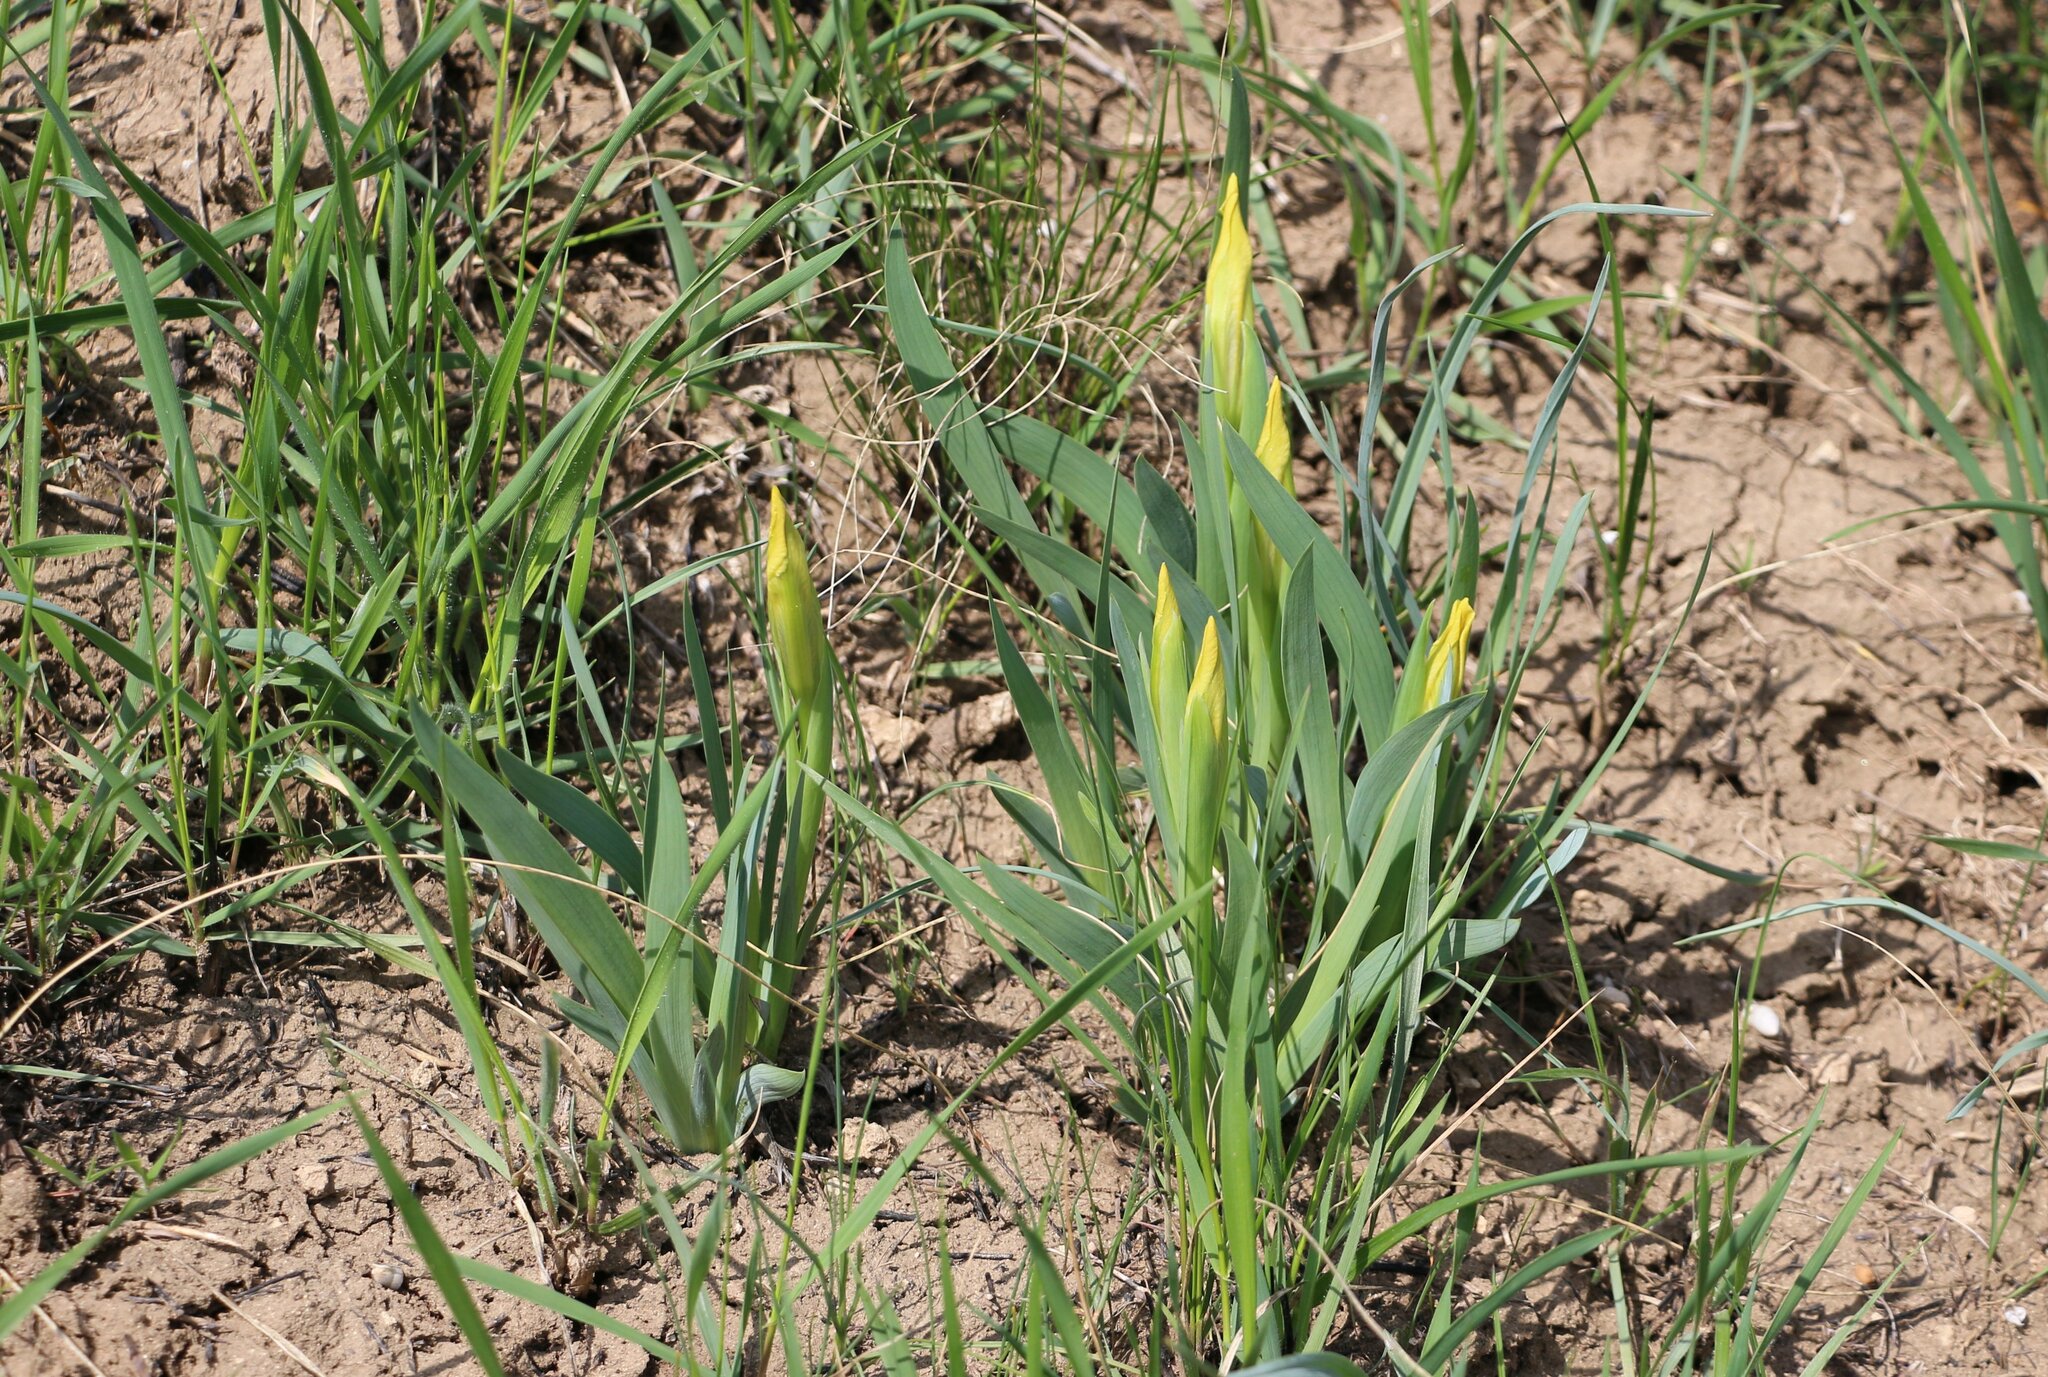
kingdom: Plantae
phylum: Tracheophyta
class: Liliopsida
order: Asparagales
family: Iridaceae
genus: Iris
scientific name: Iris pumila
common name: Dwarf iris
